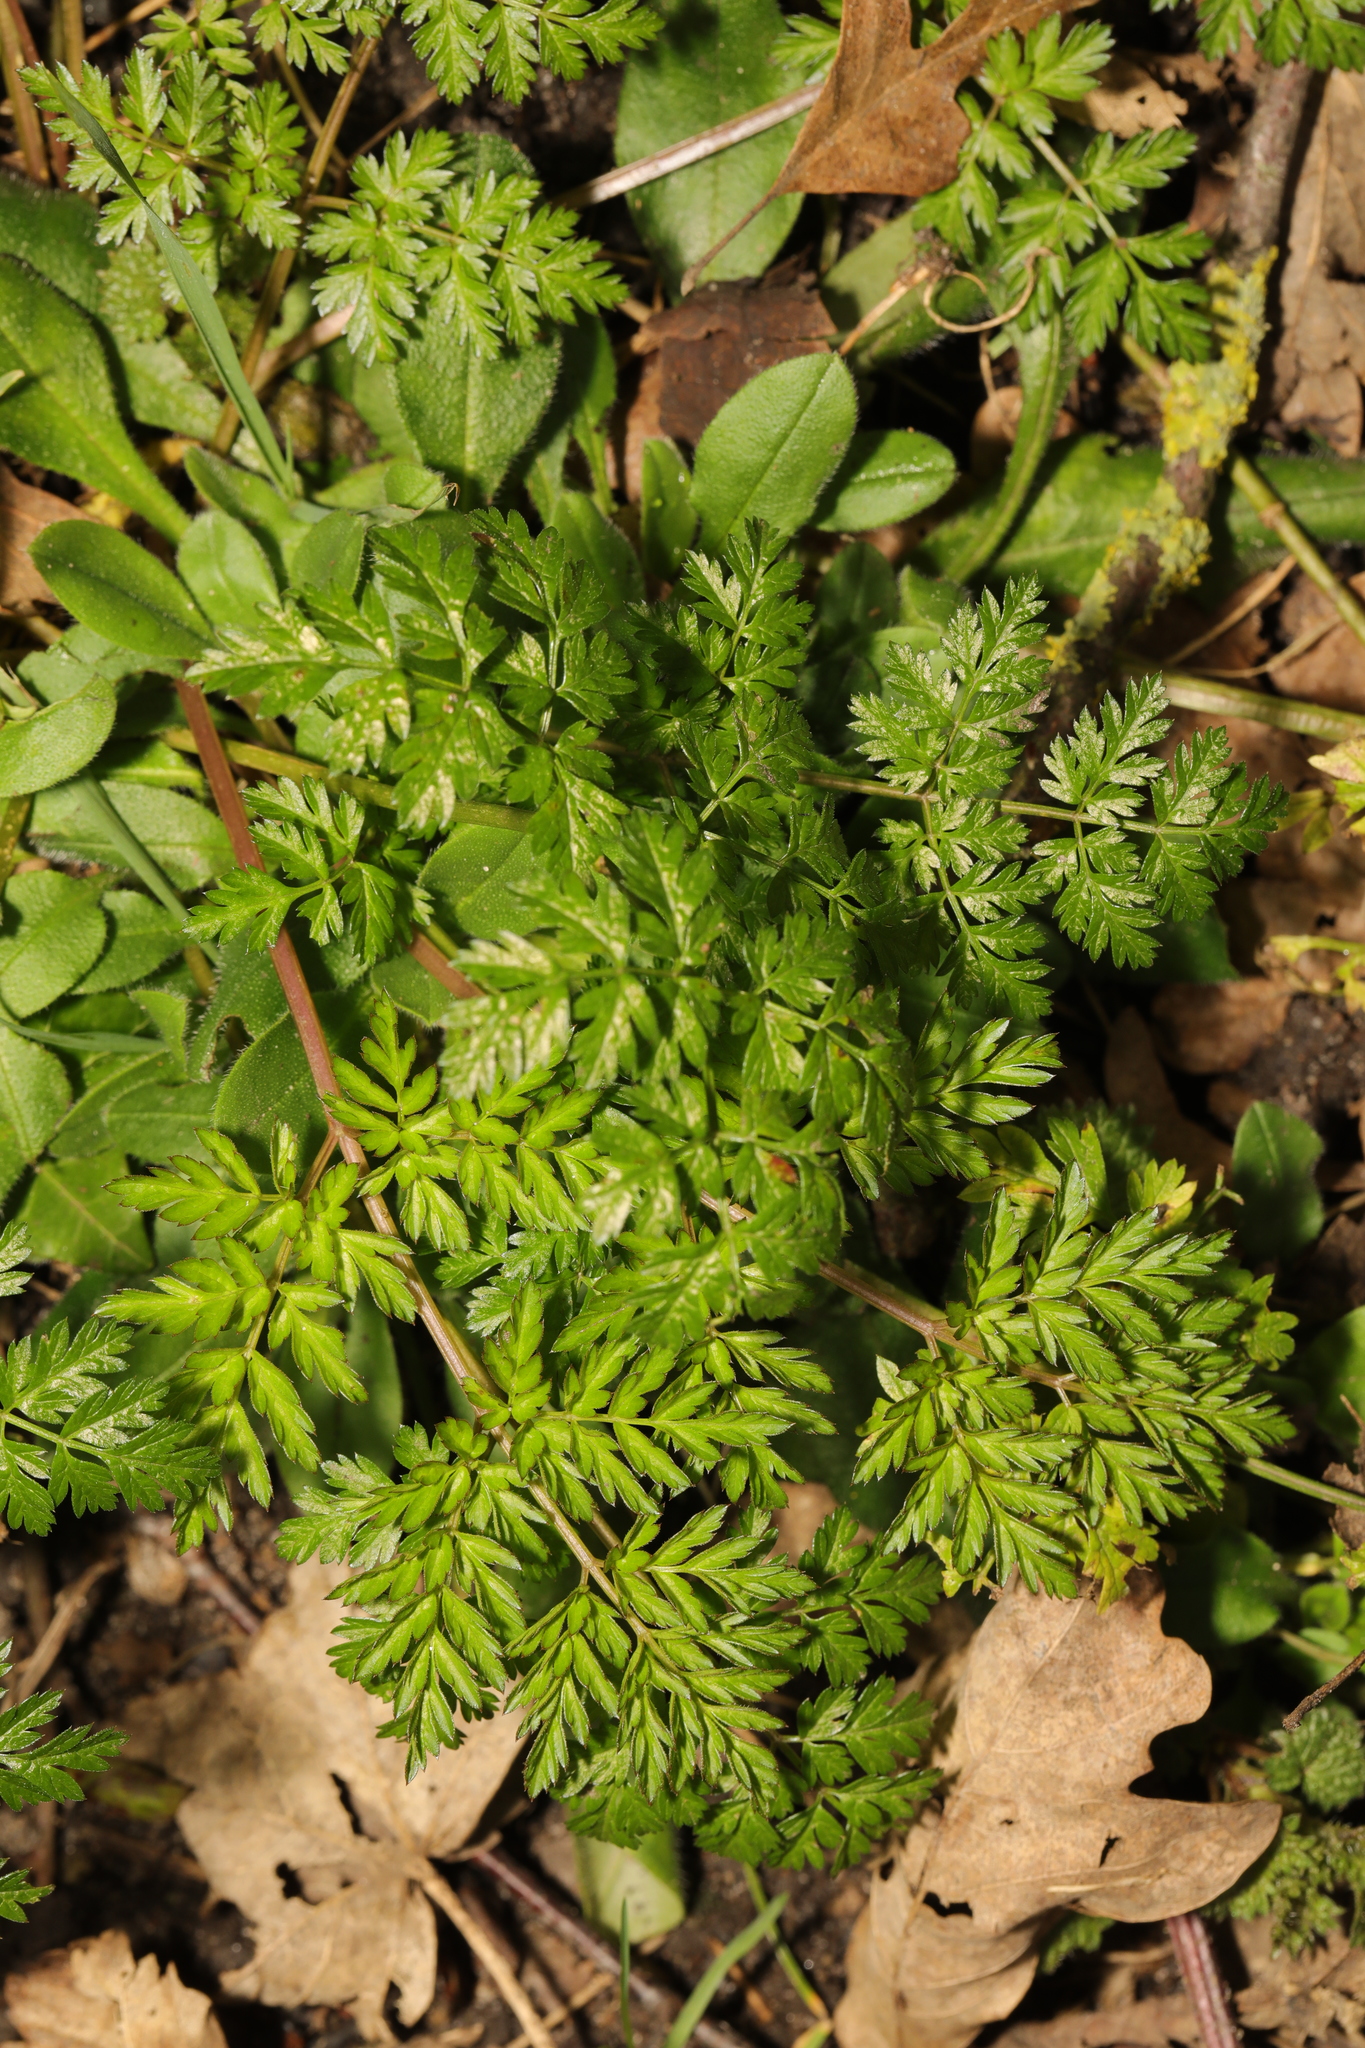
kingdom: Plantae
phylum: Tracheophyta
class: Magnoliopsida
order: Apiales
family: Apiaceae
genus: Anthriscus
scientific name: Anthriscus sylvestris
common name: Cow parsley
